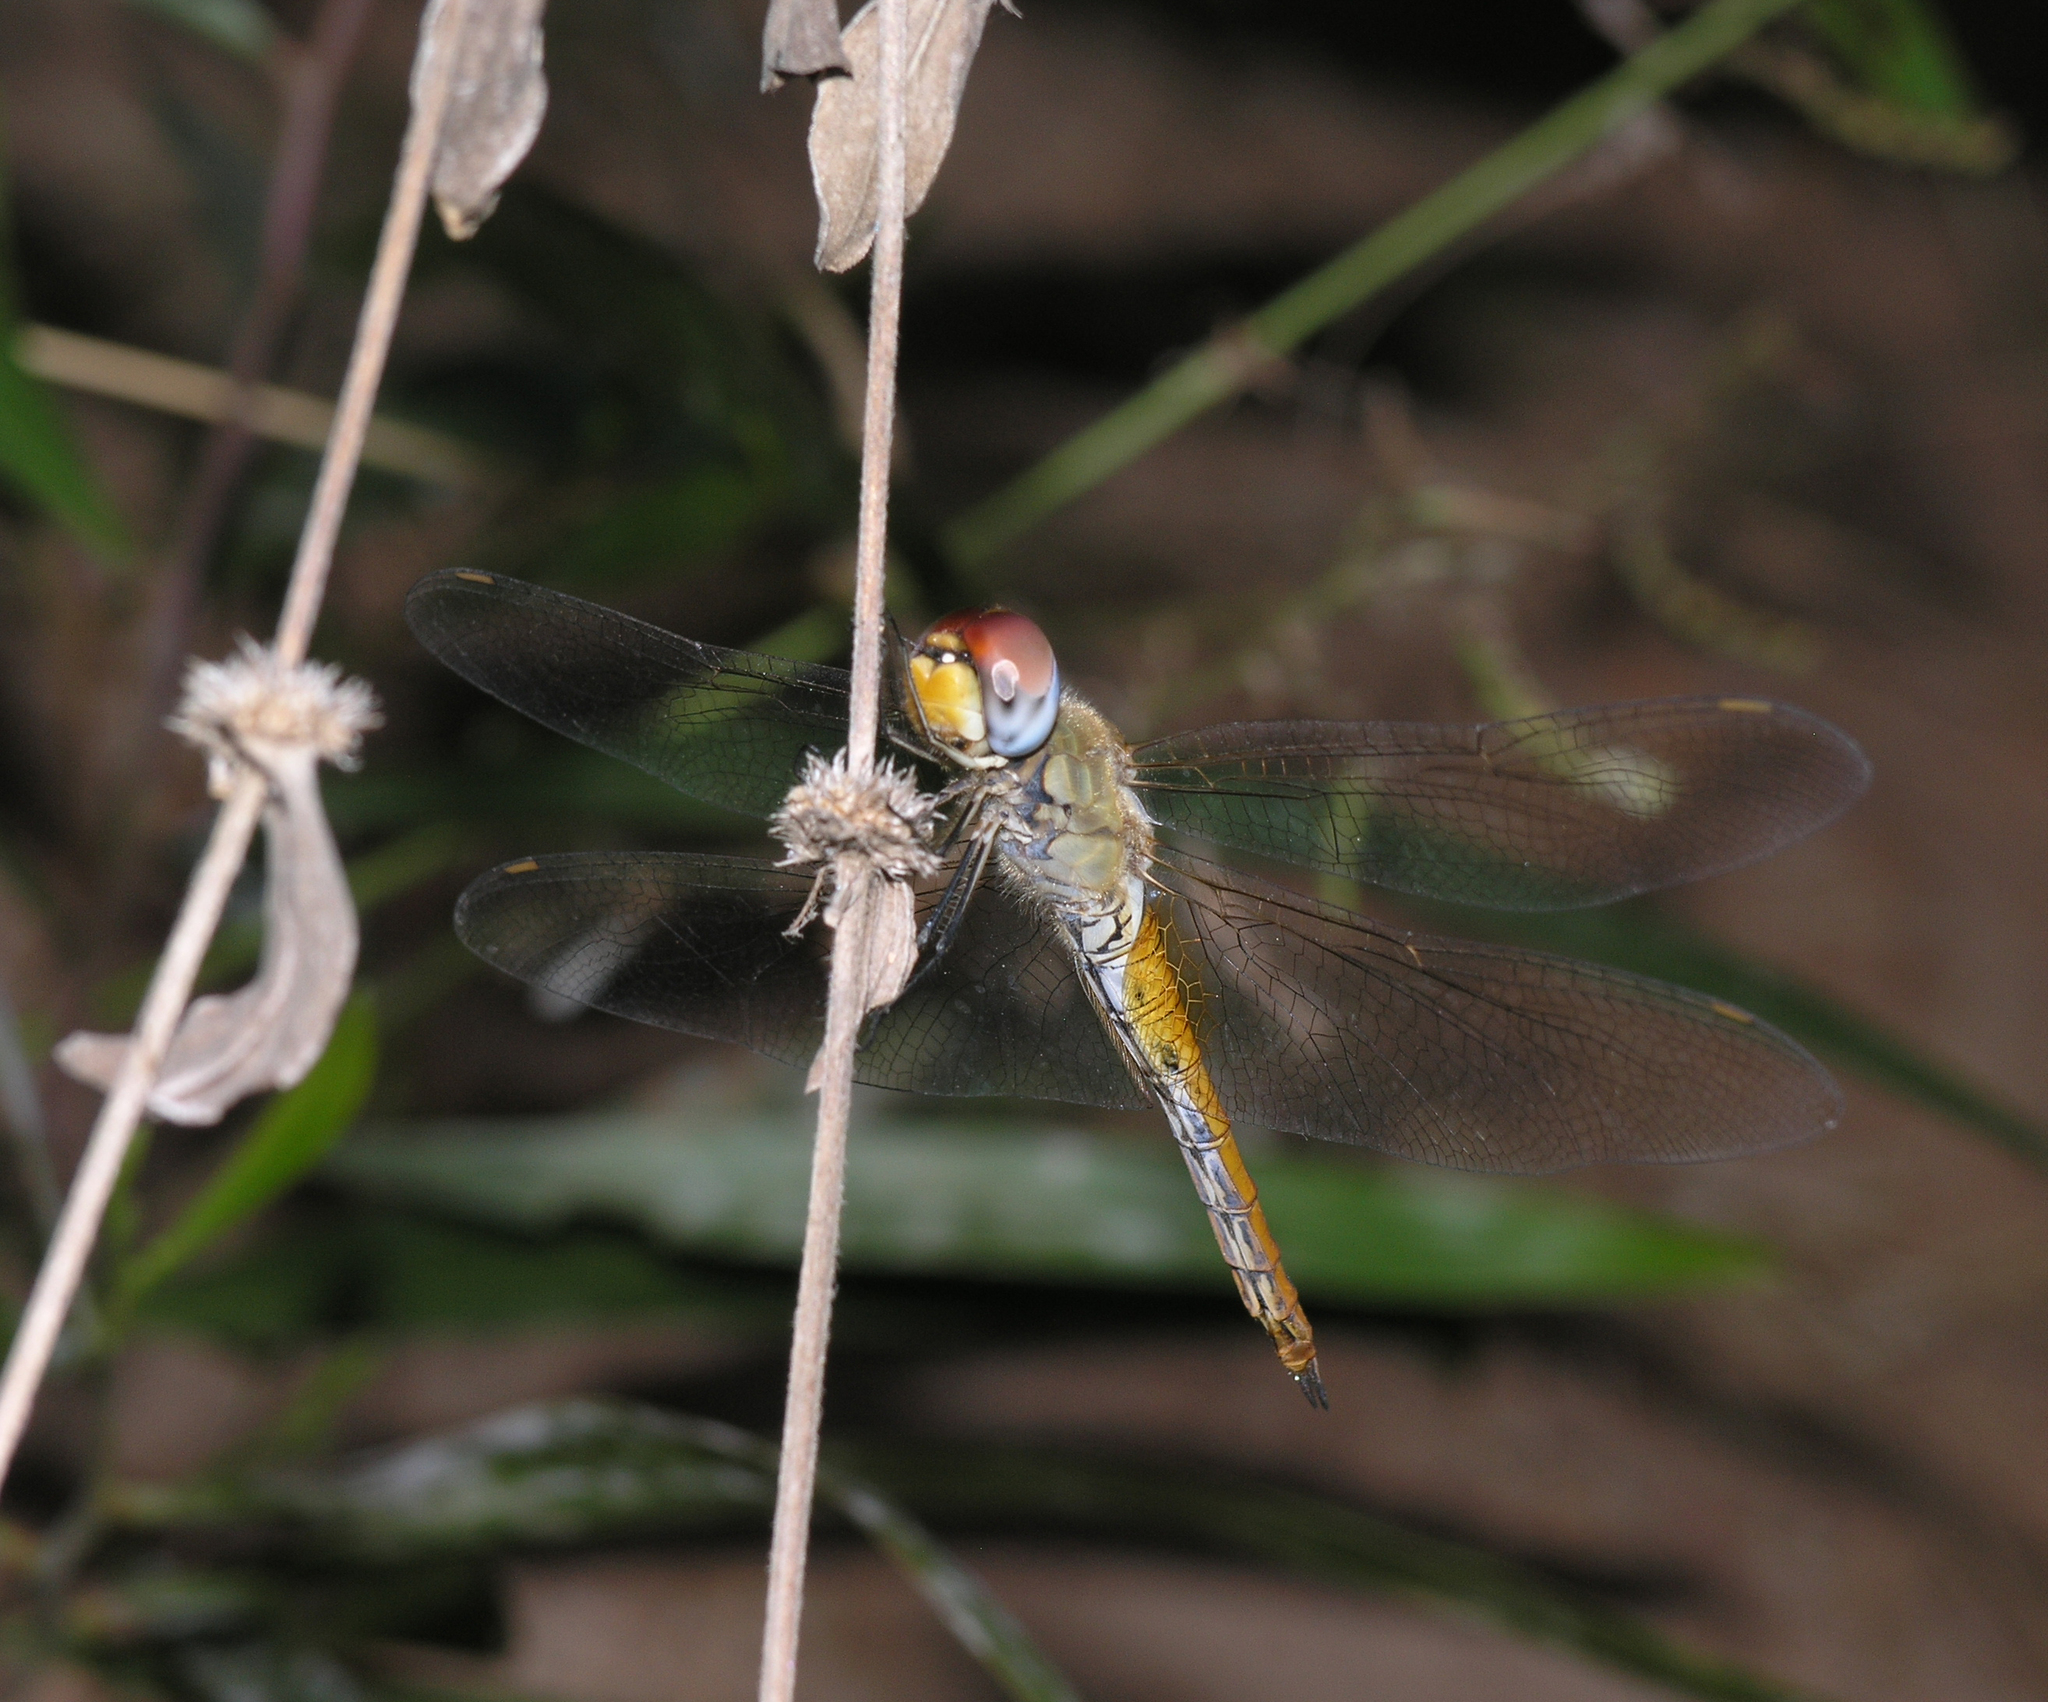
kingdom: Animalia
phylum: Arthropoda
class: Insecta
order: Odonata
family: Libellulidae
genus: Pantala
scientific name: Pantala flavescens
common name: Wandering glider
